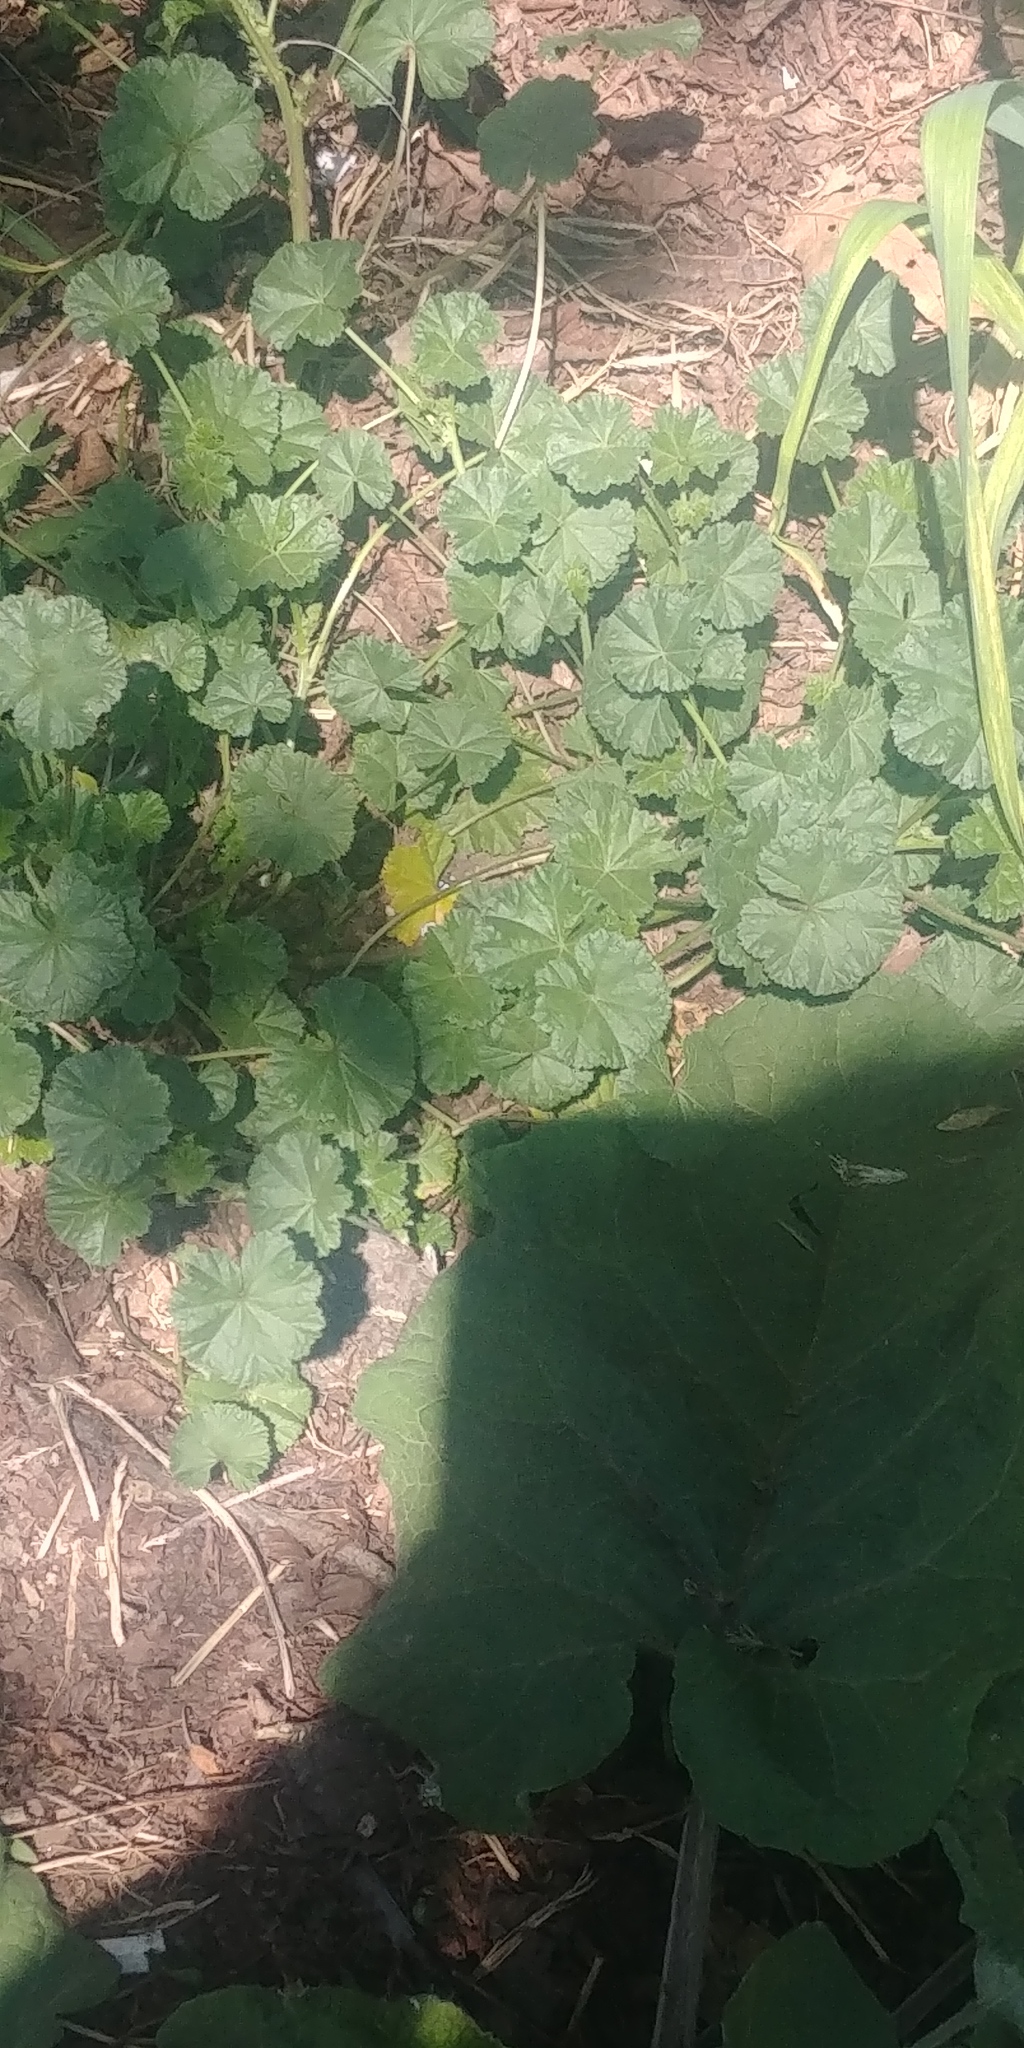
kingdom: Plantae
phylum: Tracheophyta
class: Magnoliopsida
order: Malvales
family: Malvaceae
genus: Malva
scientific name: Malva neglecta
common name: Common mallow
